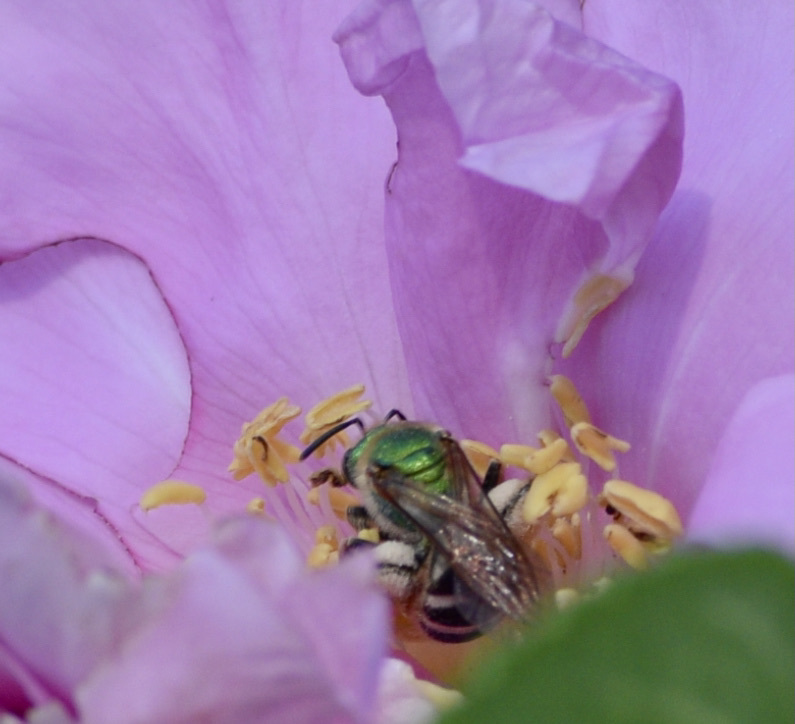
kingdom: Animalia
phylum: Arthropoda
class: Insecta
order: Hymenoptera
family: Halictidae
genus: Agapostemon
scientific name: Agapostemon virescens
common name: Bicolored striped sweat bee
